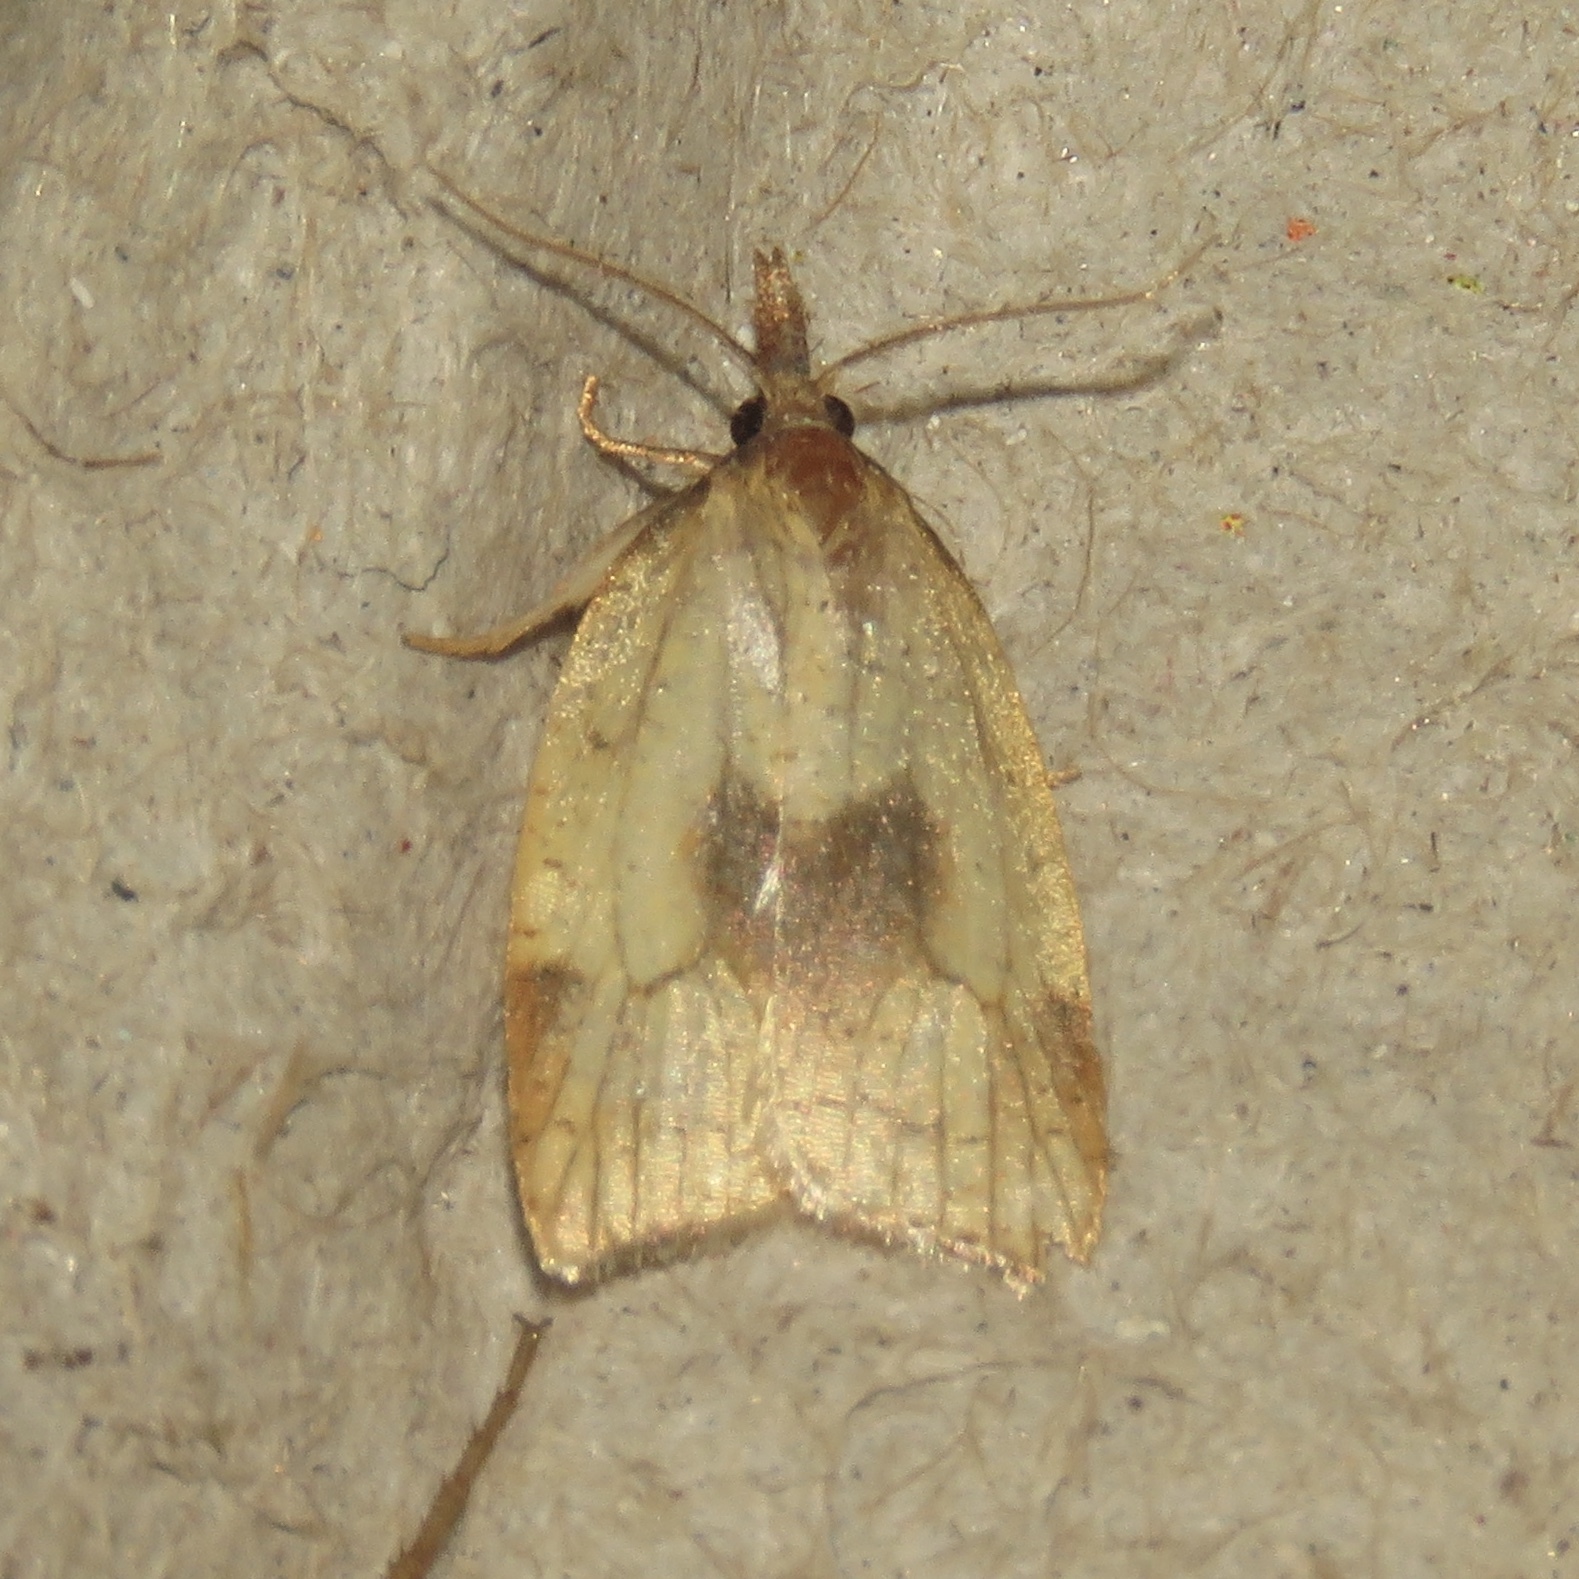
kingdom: Animalia
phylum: Arthropoda
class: Insecta
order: Lepidoptera
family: Tortricidae
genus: Sparganothis
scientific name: Sparganothis xanthoides
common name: Mosaic sparganothis moth
